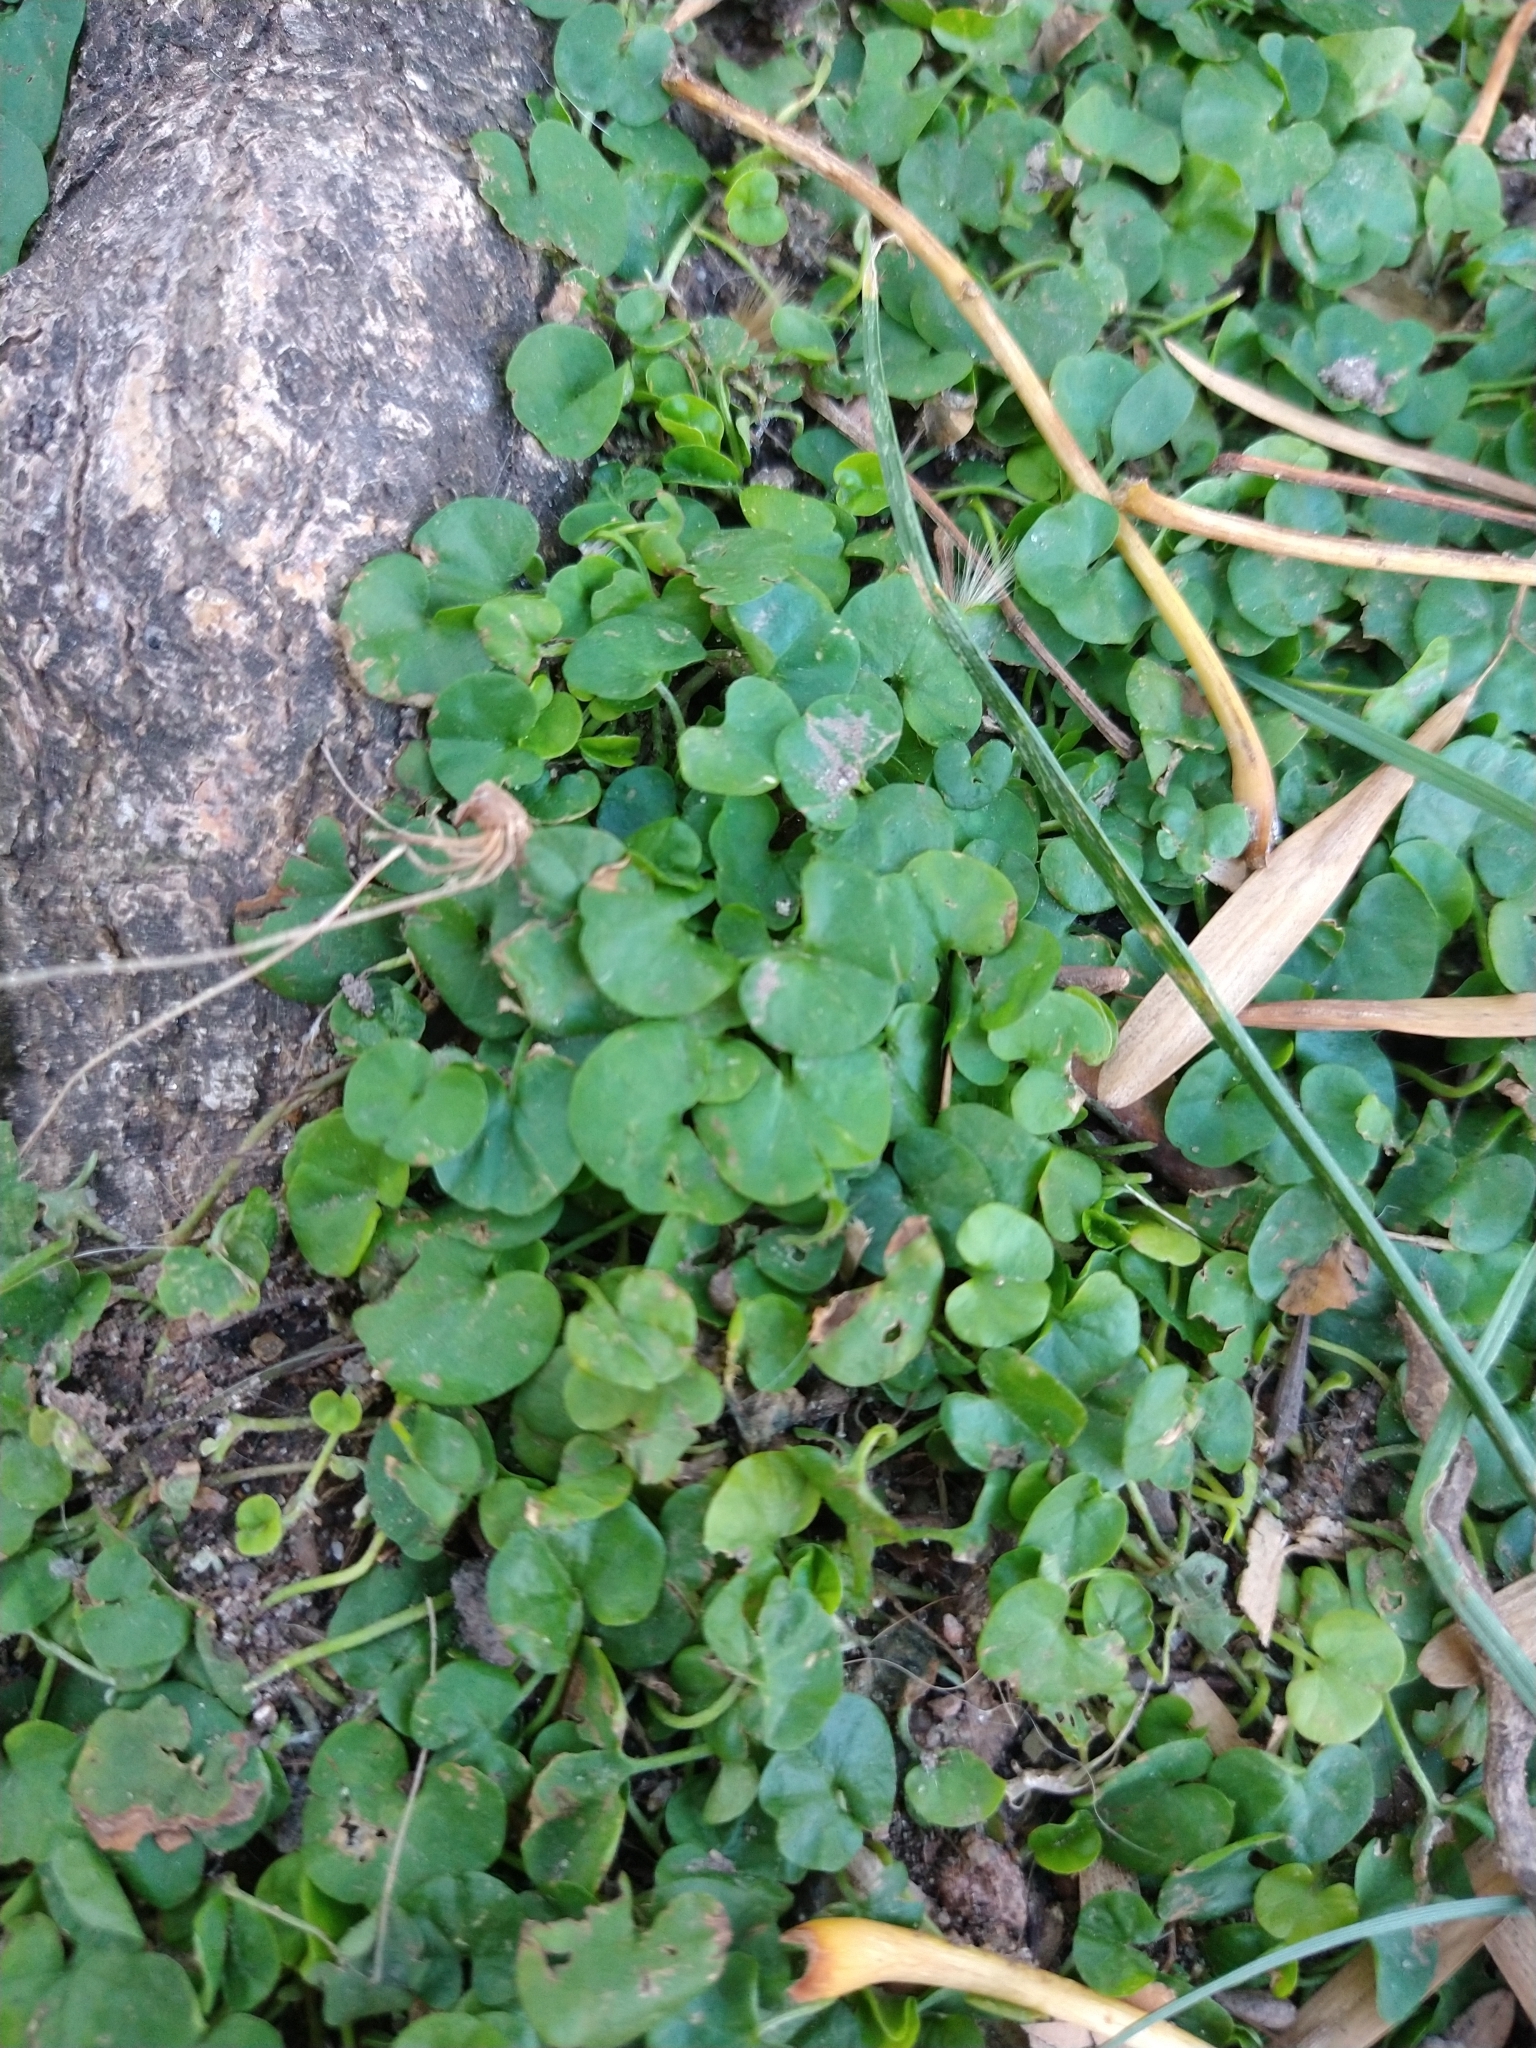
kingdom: Plantae
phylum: Tracheophyta
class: Magnoliopsida
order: Solanales
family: Convolvulaceae
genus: Dichondra
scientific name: Dichondra microcalyx
